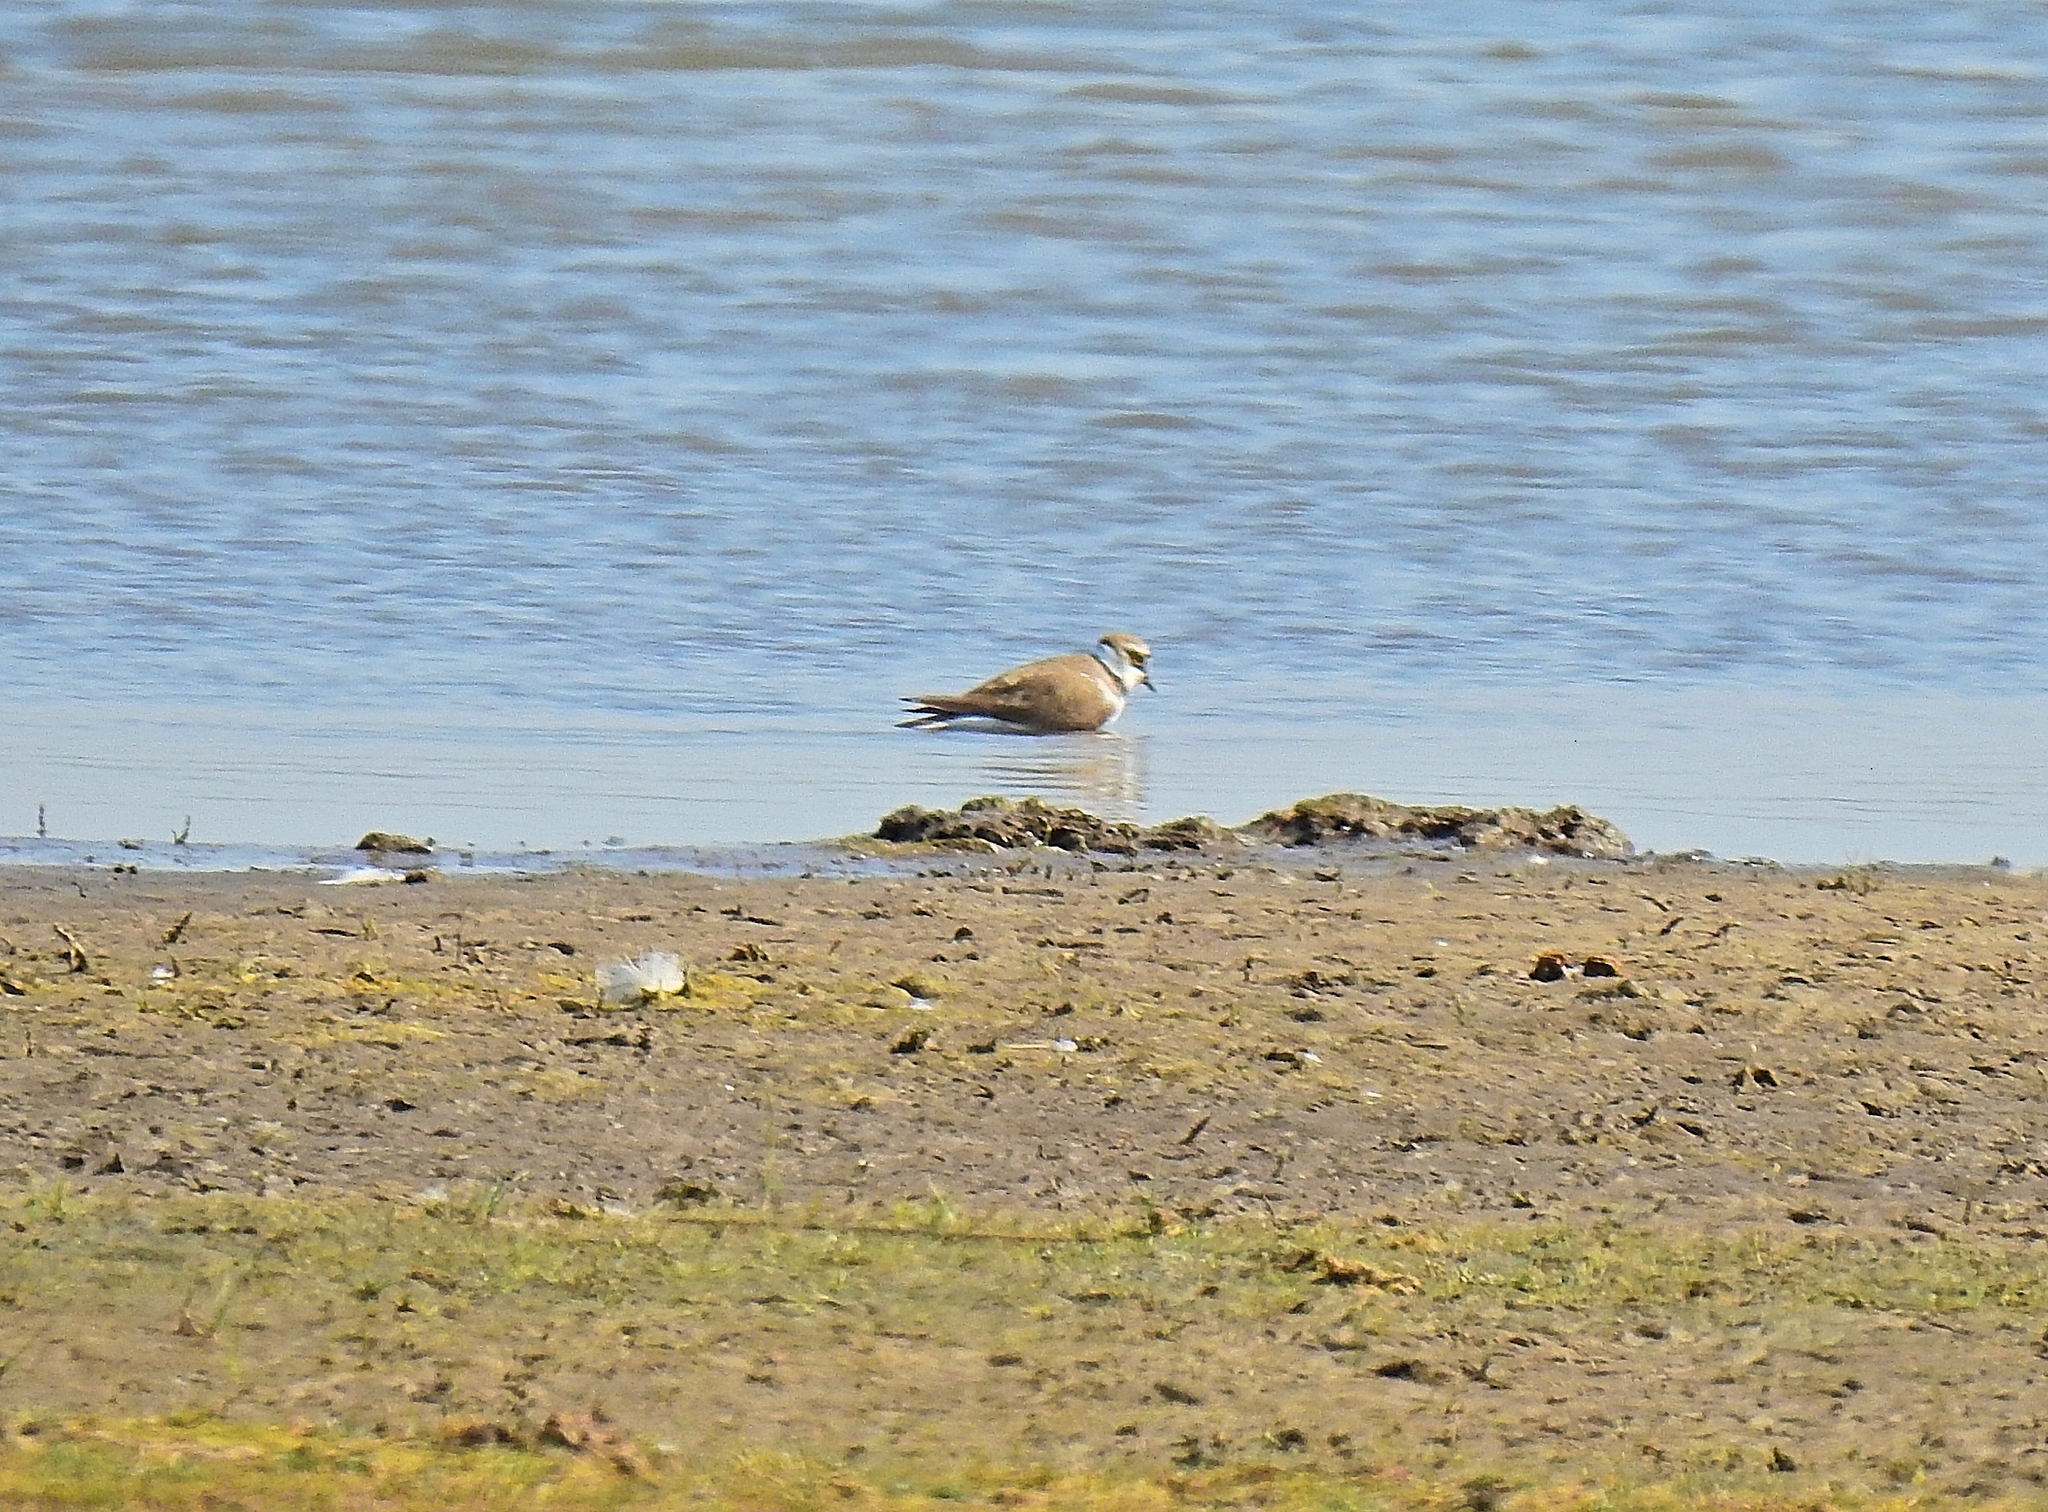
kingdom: Animalia
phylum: Chordata
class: Aves
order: Charadriiformes
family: Charadriidae
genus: Charadrius
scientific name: Charadrius dubius
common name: Little ringed plover
